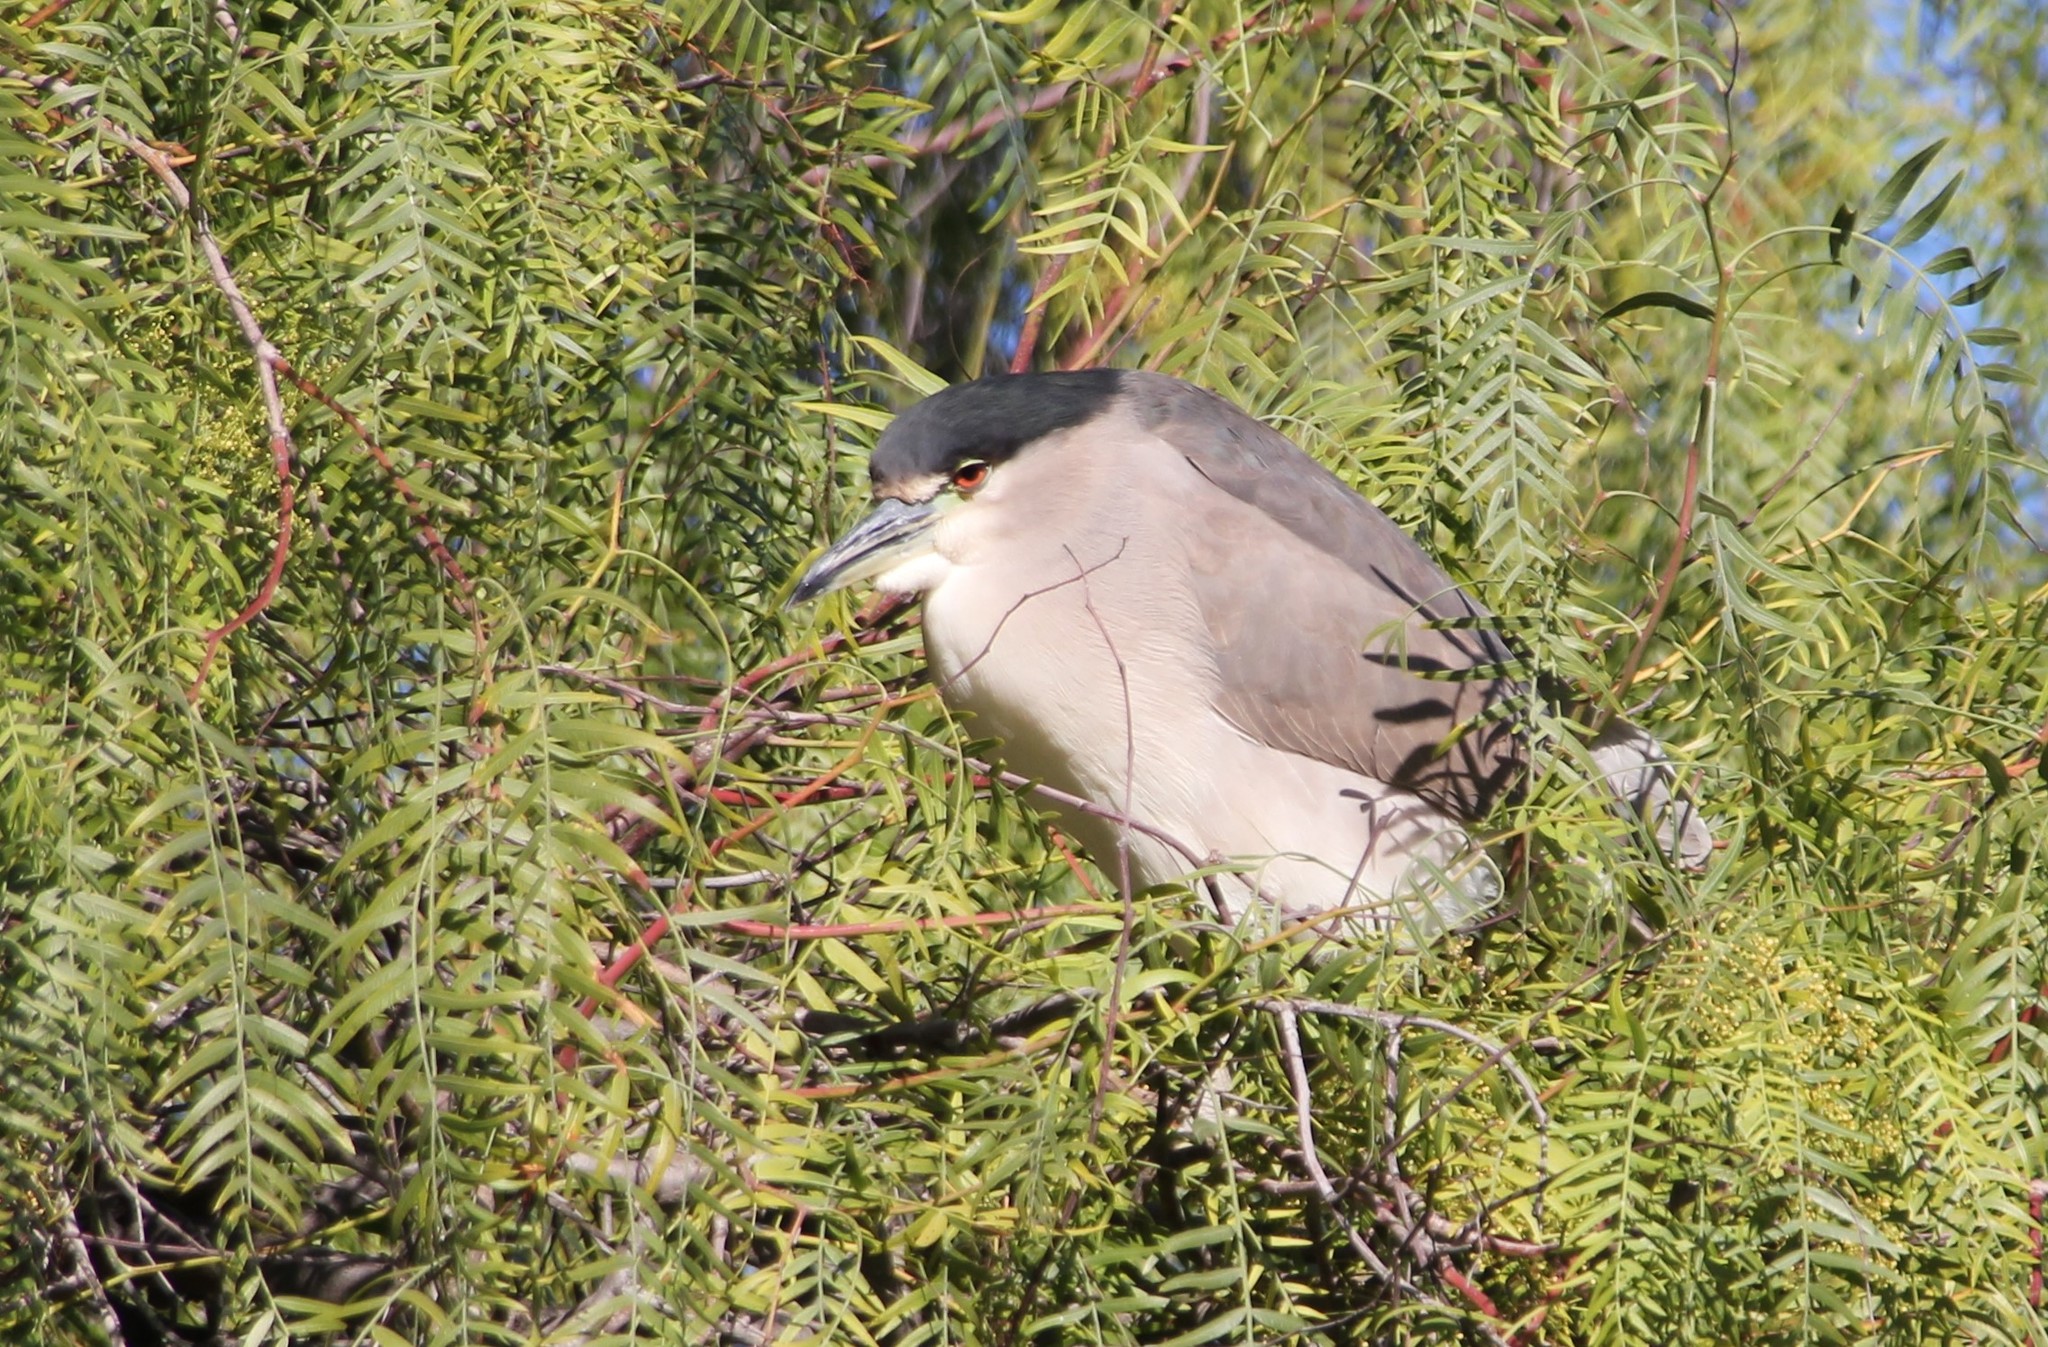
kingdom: Animalia
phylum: Chordata
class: Aves
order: Pelecaniformes
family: Ardeidae
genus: Nycticorax
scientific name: Nycticorax nycticorax
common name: Black-crowned night heron
